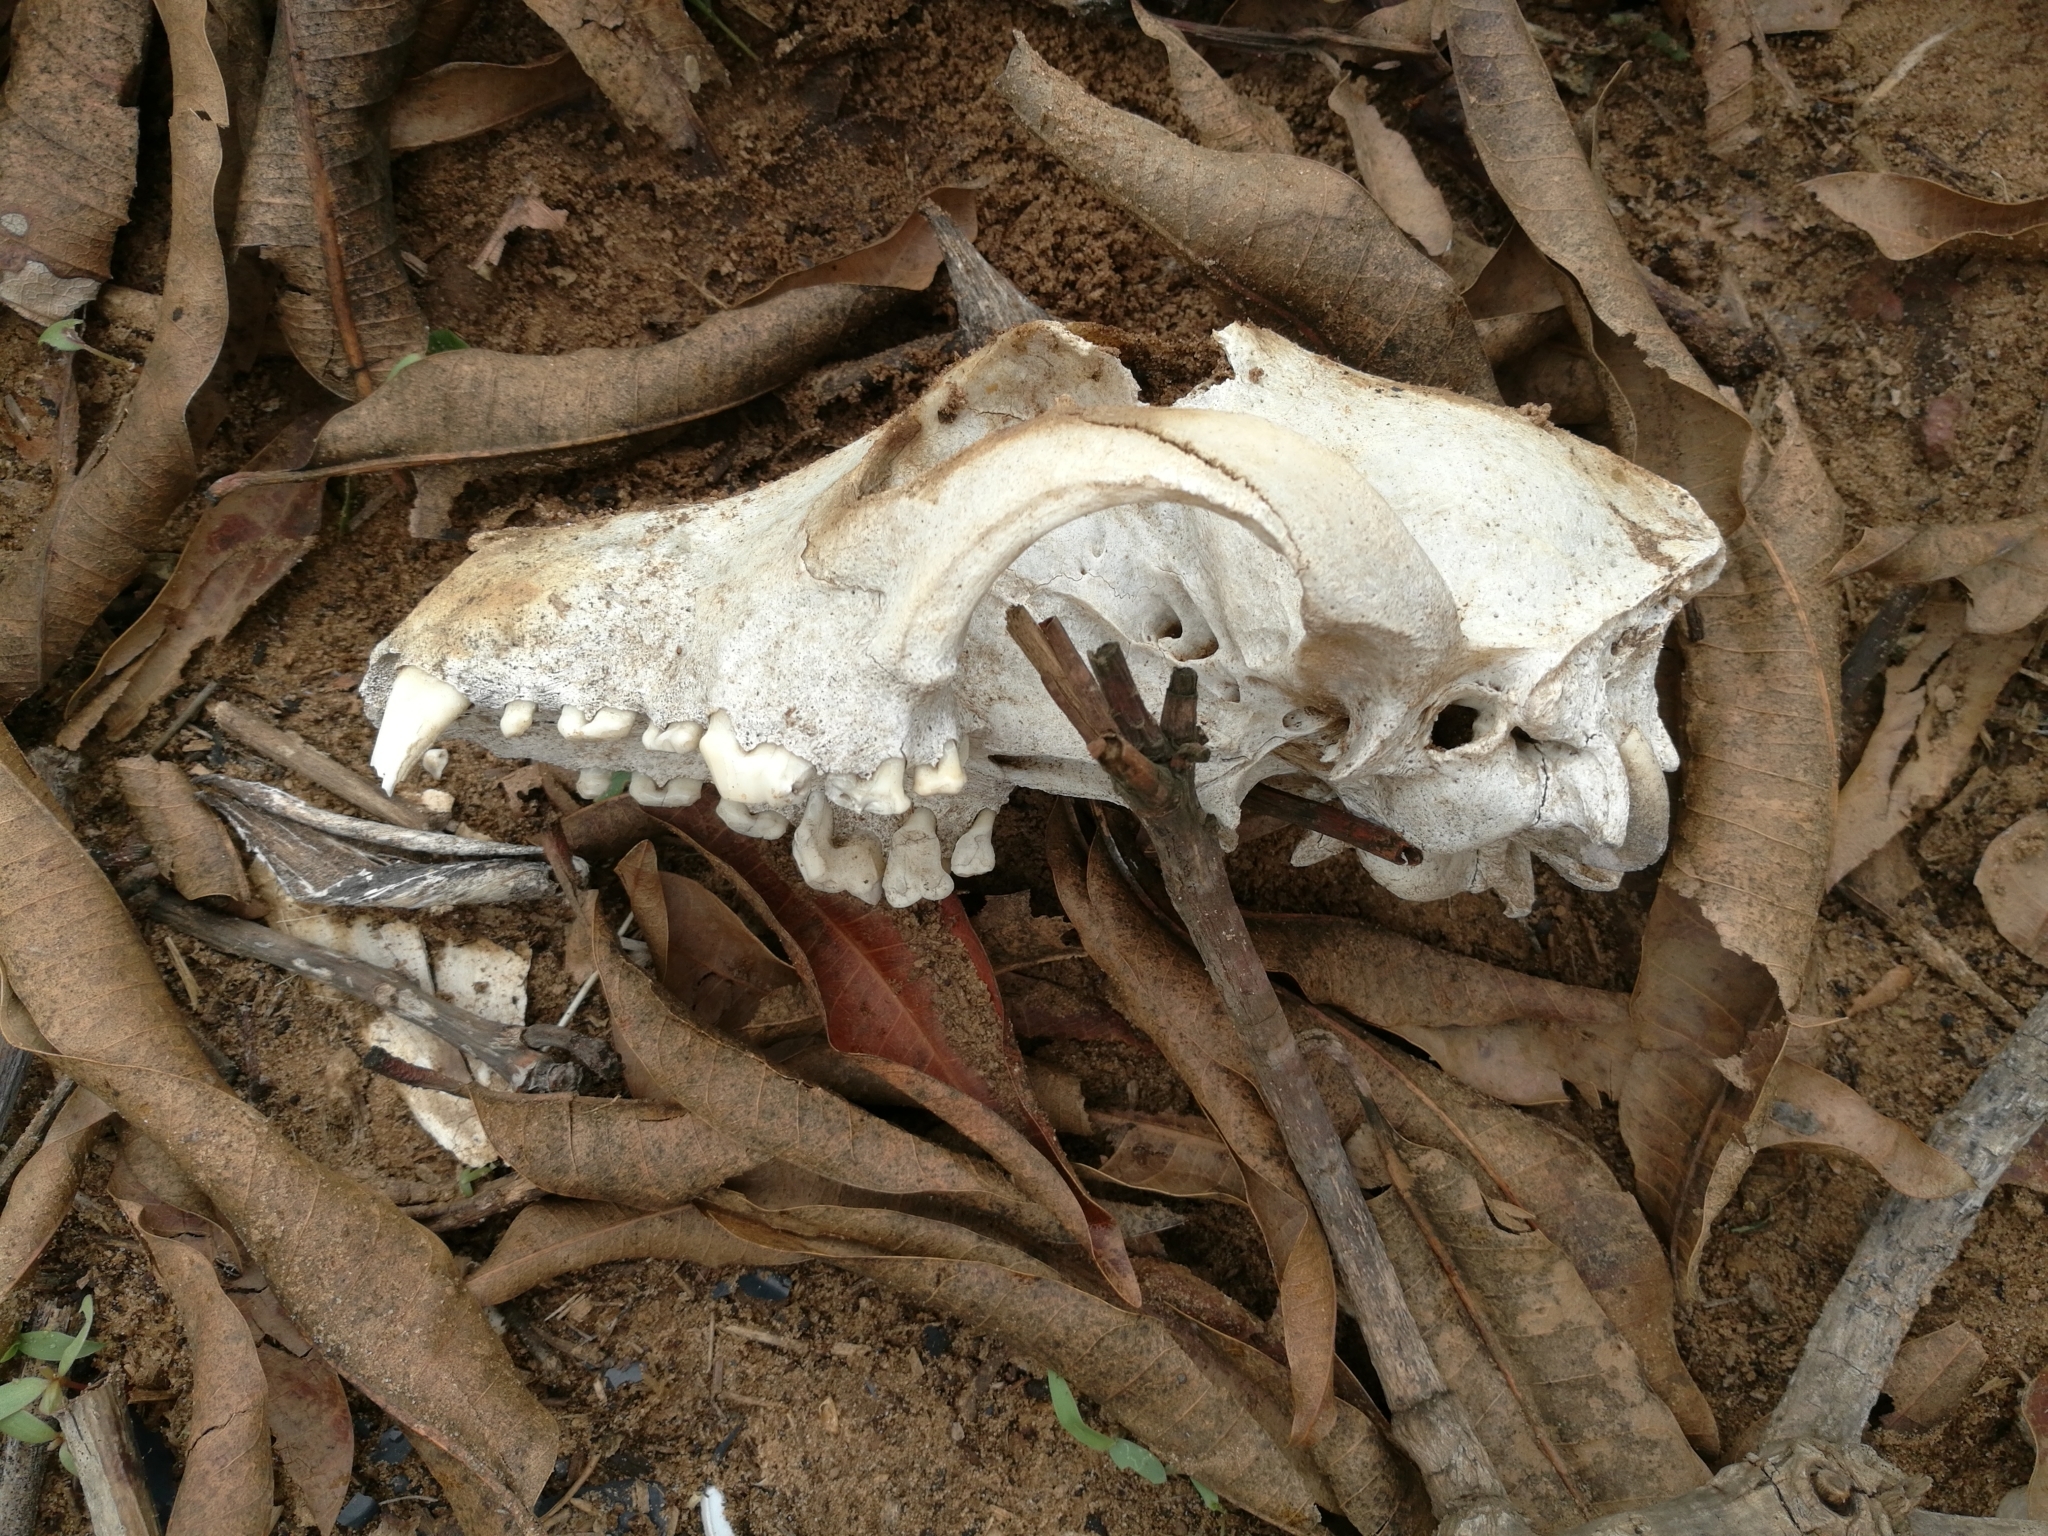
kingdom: Animalia
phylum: Chordata
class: Mammalia
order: Carnivora
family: Canidae
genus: Canis
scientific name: Canis lupus
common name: Gray wolf
